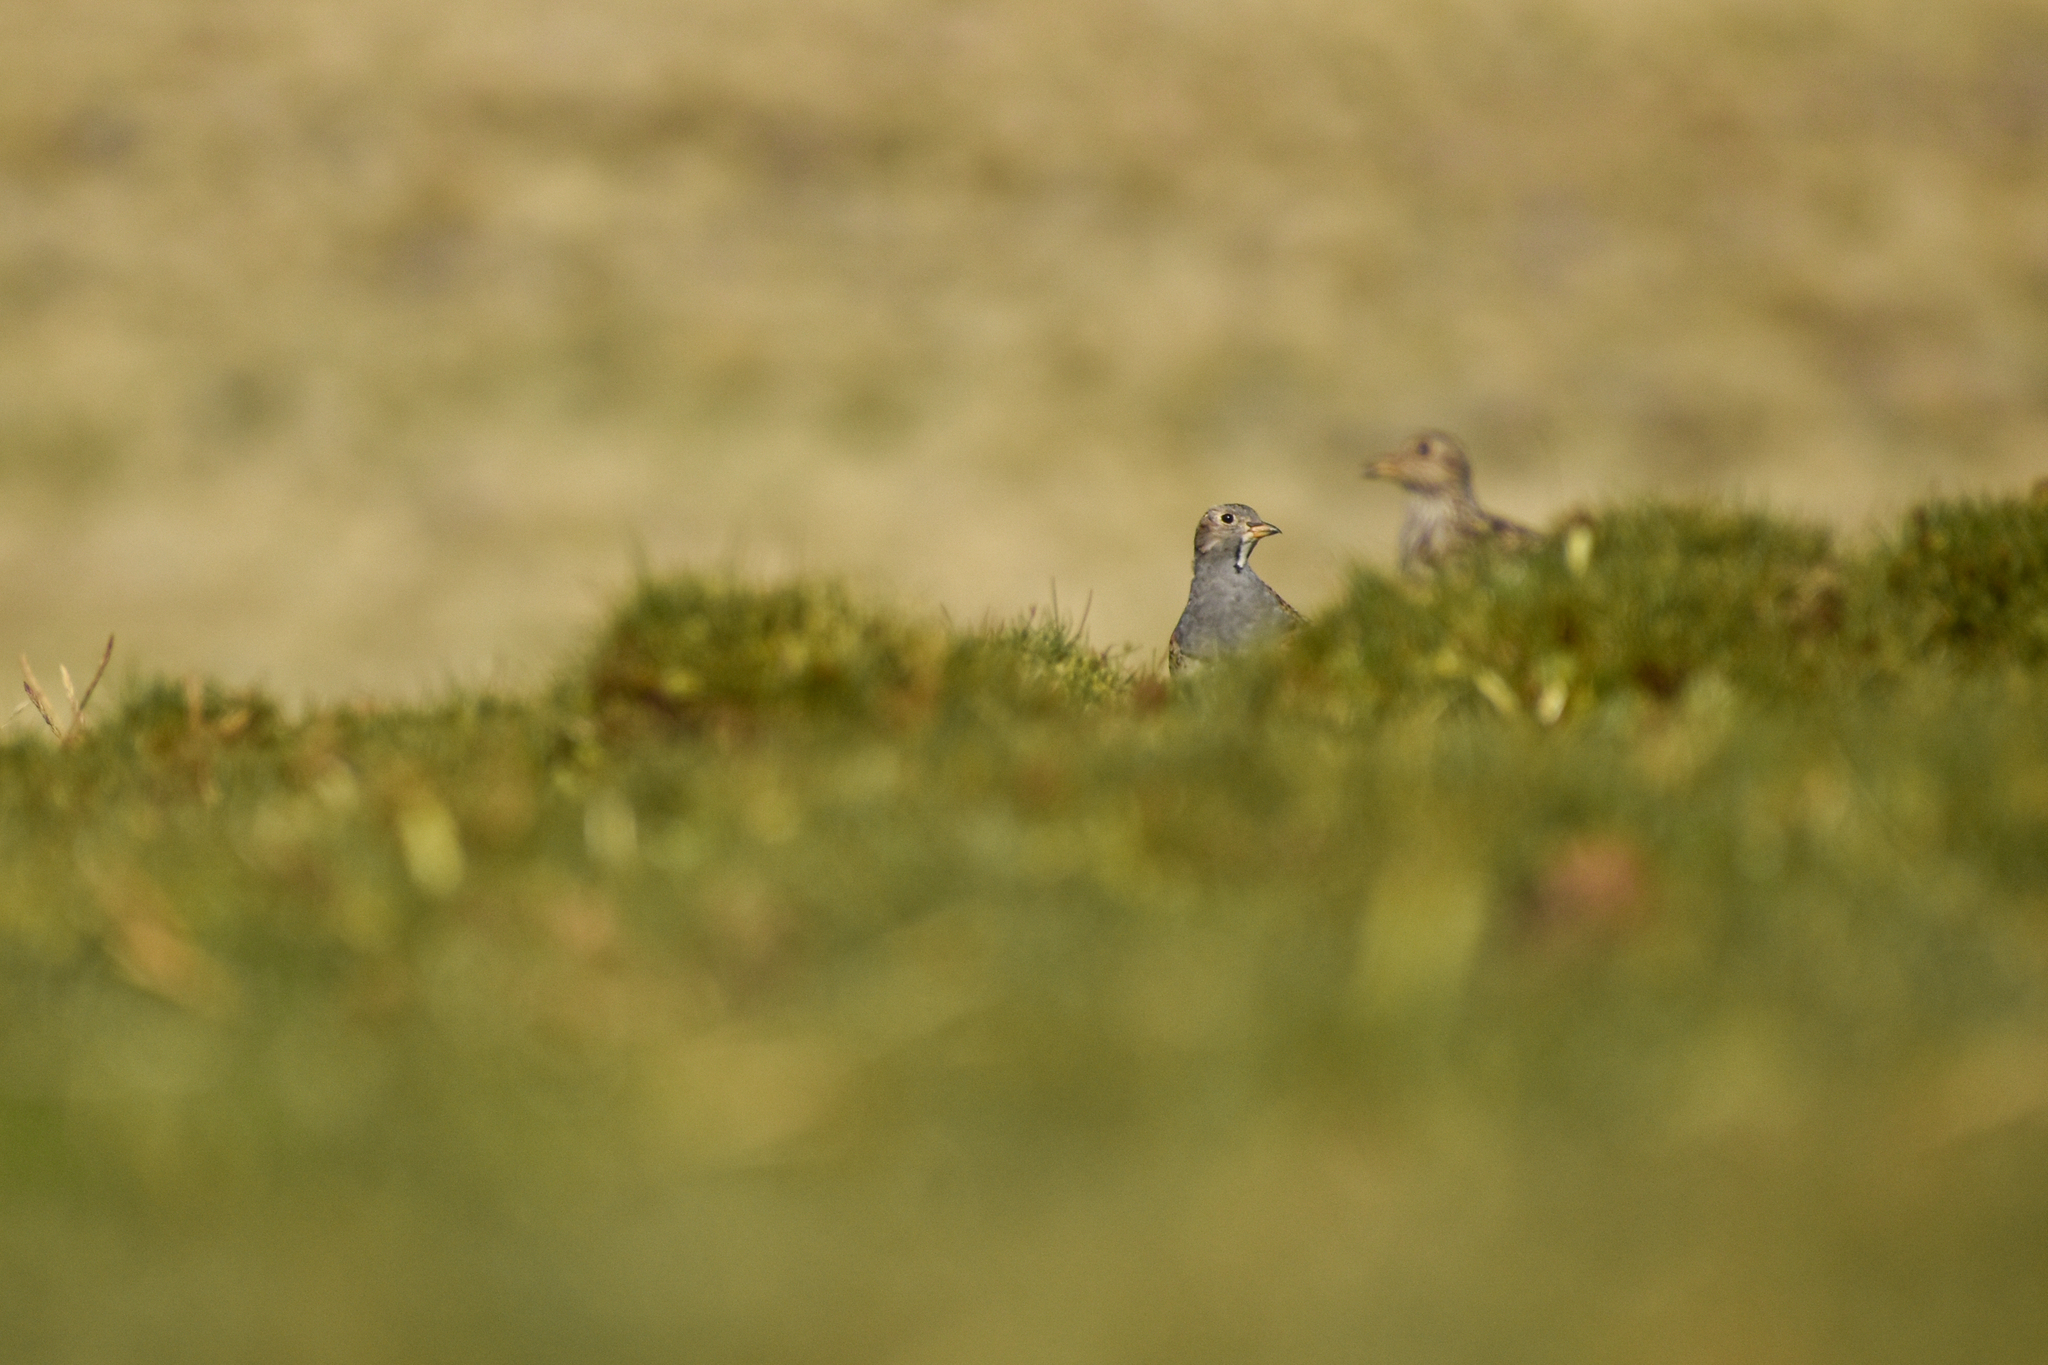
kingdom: Animalia
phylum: Chordata
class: Aves
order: Charadriiformes
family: Thinocoridae
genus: Thinocorus
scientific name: Thinocorus orbignyianus
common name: Grey-breasted seedsnipe
